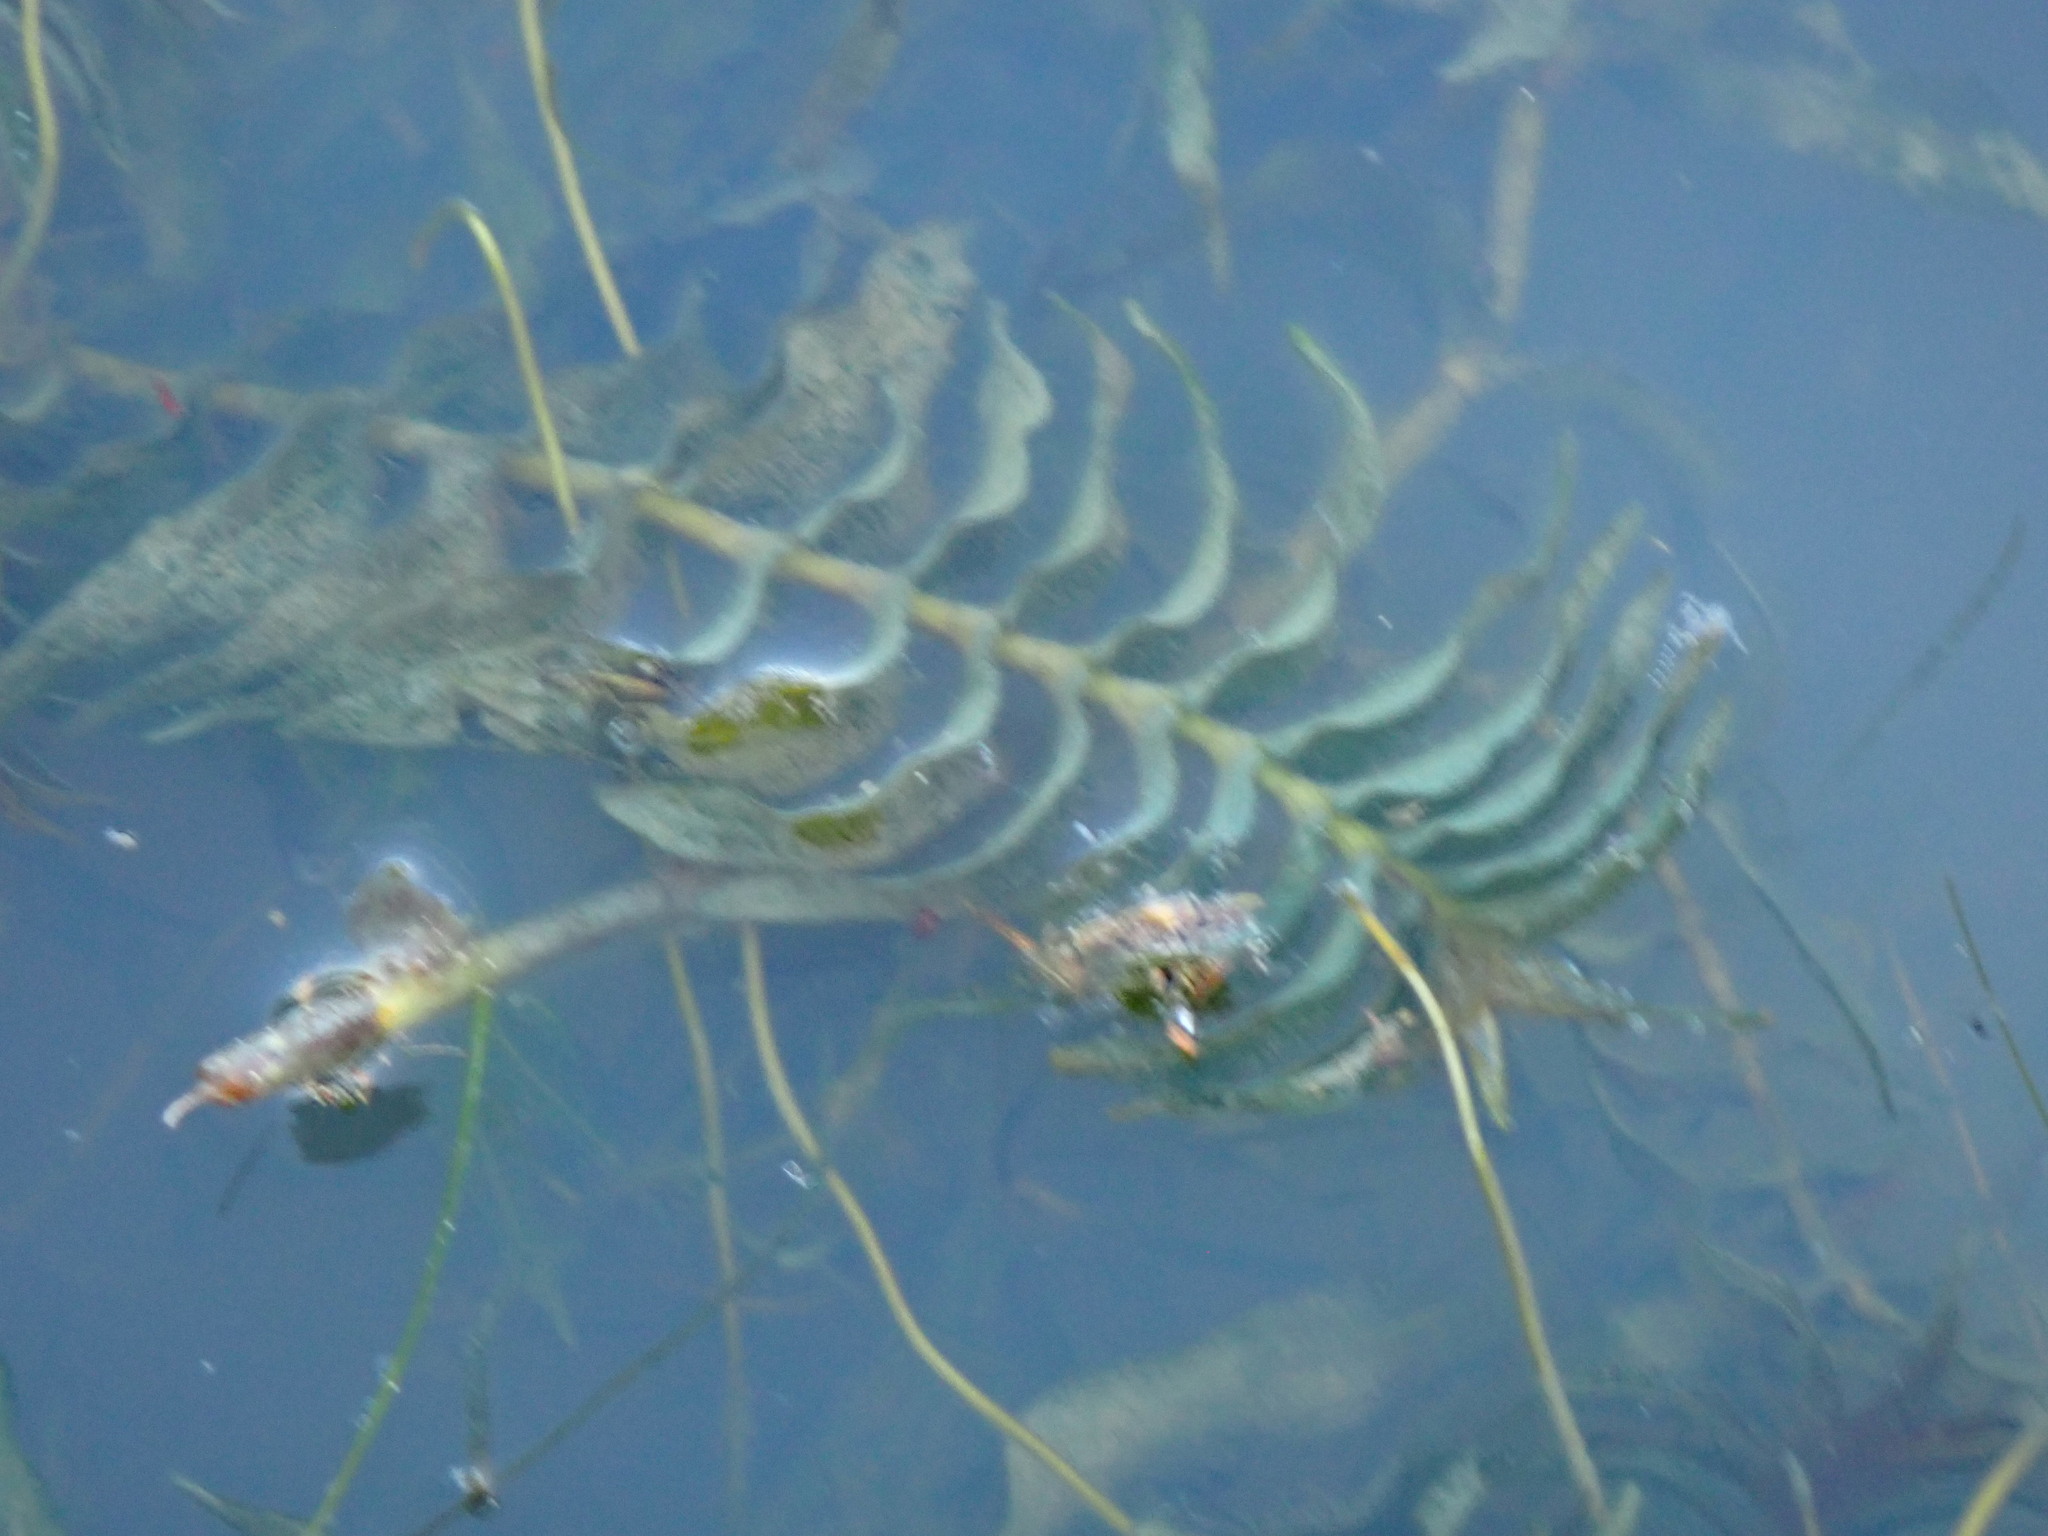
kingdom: Plantae
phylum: Tracheophyta
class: Liliopsida
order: Alismatales
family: Potamogetonaceae
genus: Groenlandia
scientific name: Groenlandia densa
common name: Opposite-leaved pondweed
